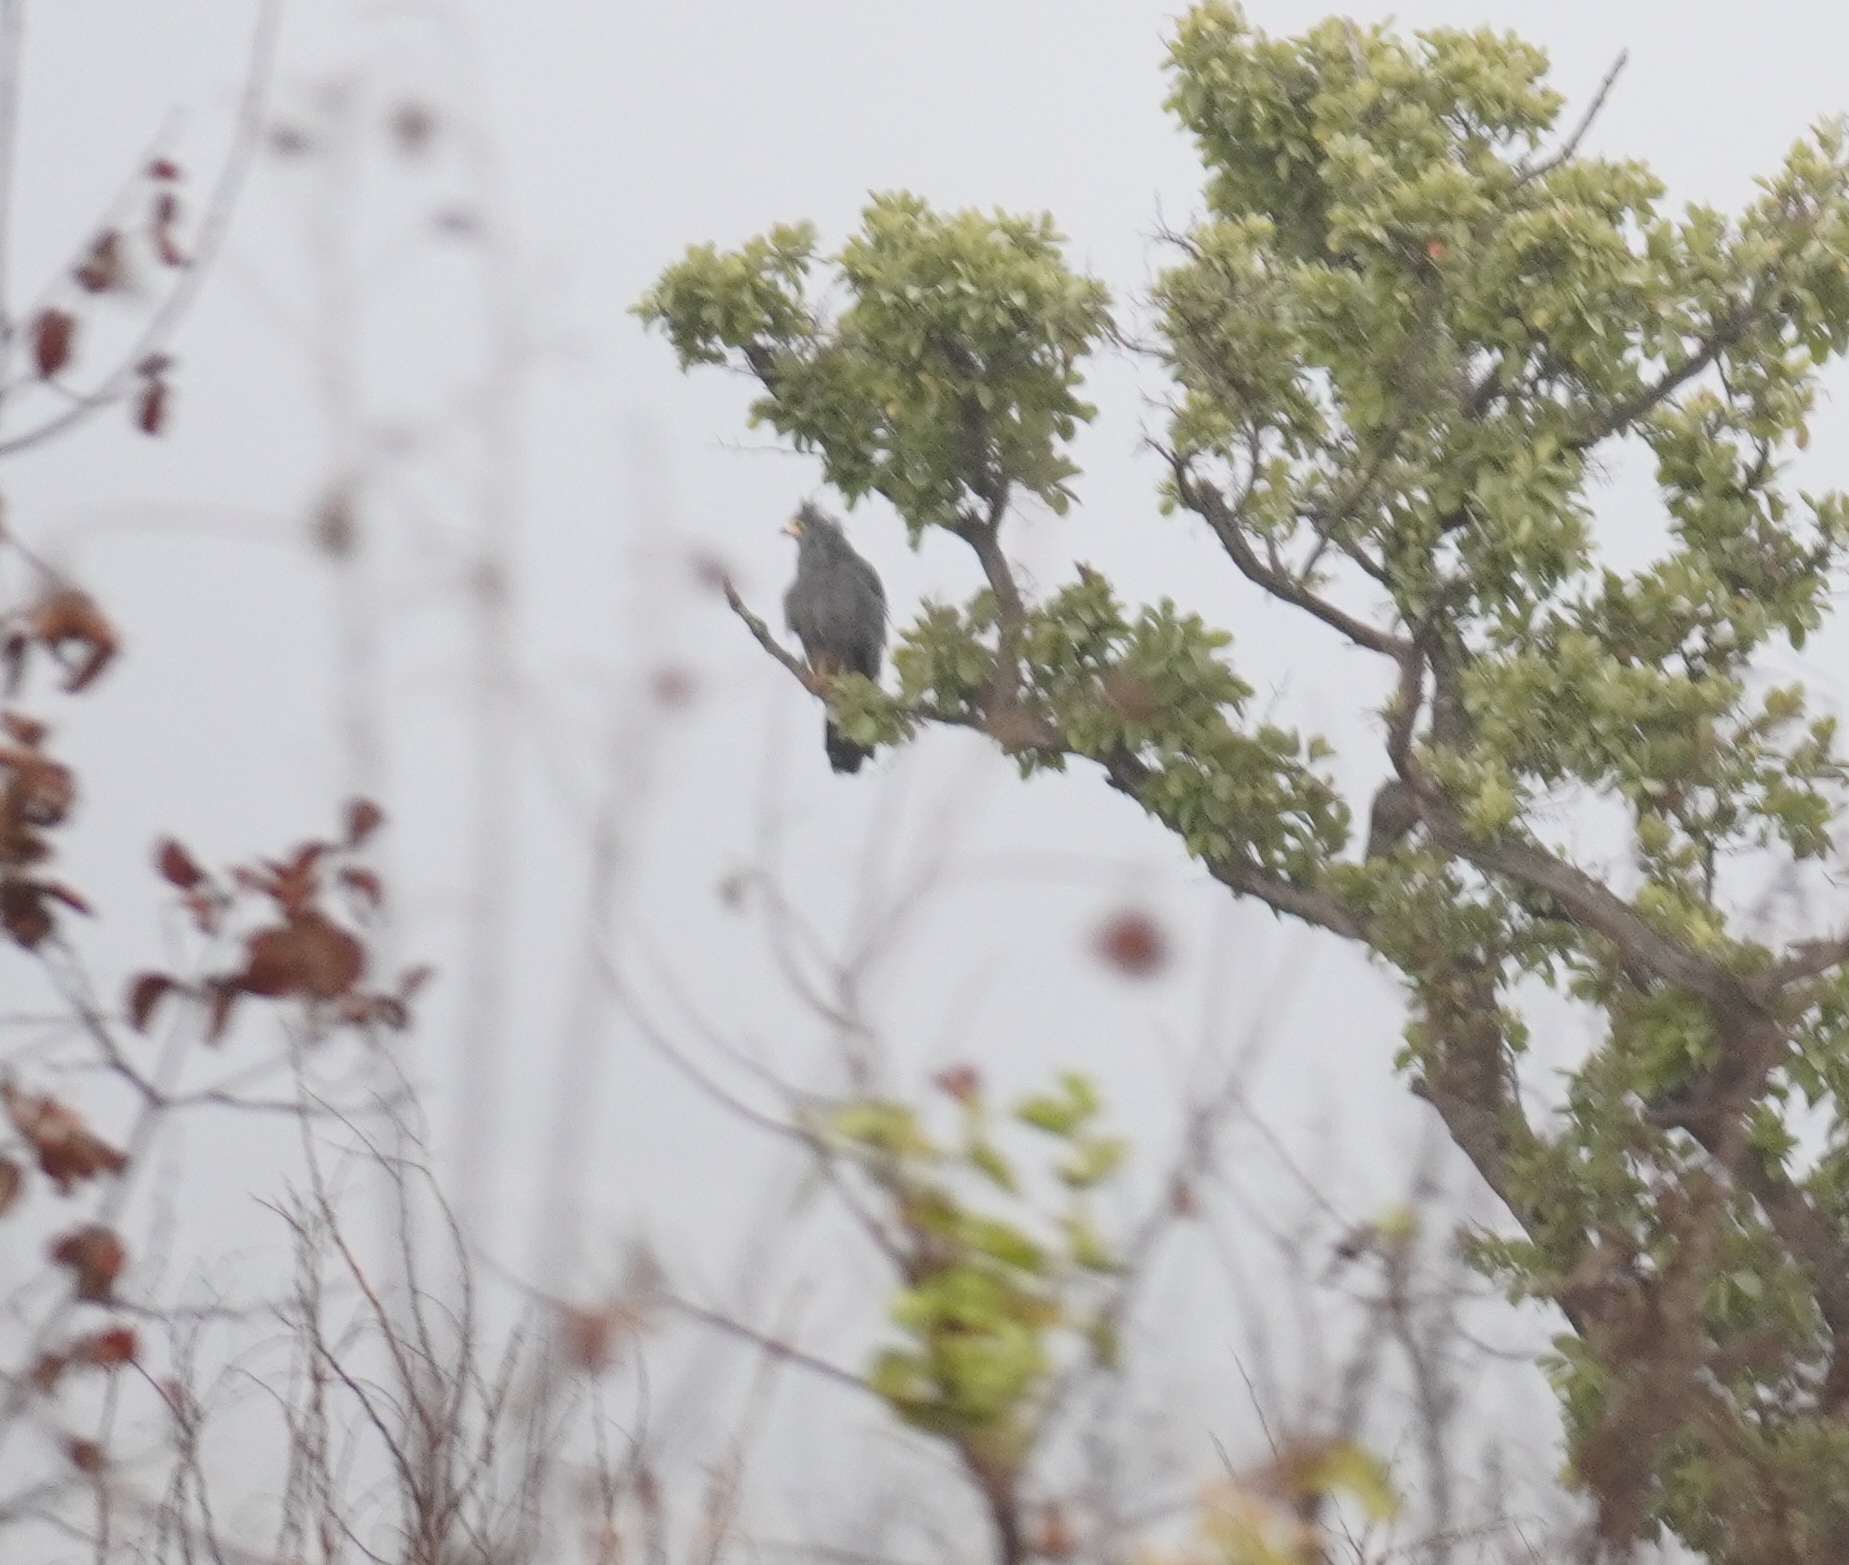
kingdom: Animalia
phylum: Chordata
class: Aves
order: Accipitriformes
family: Accipitridae
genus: Polyboroides
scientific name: Polyboroides typus
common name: African harrier-hawk
